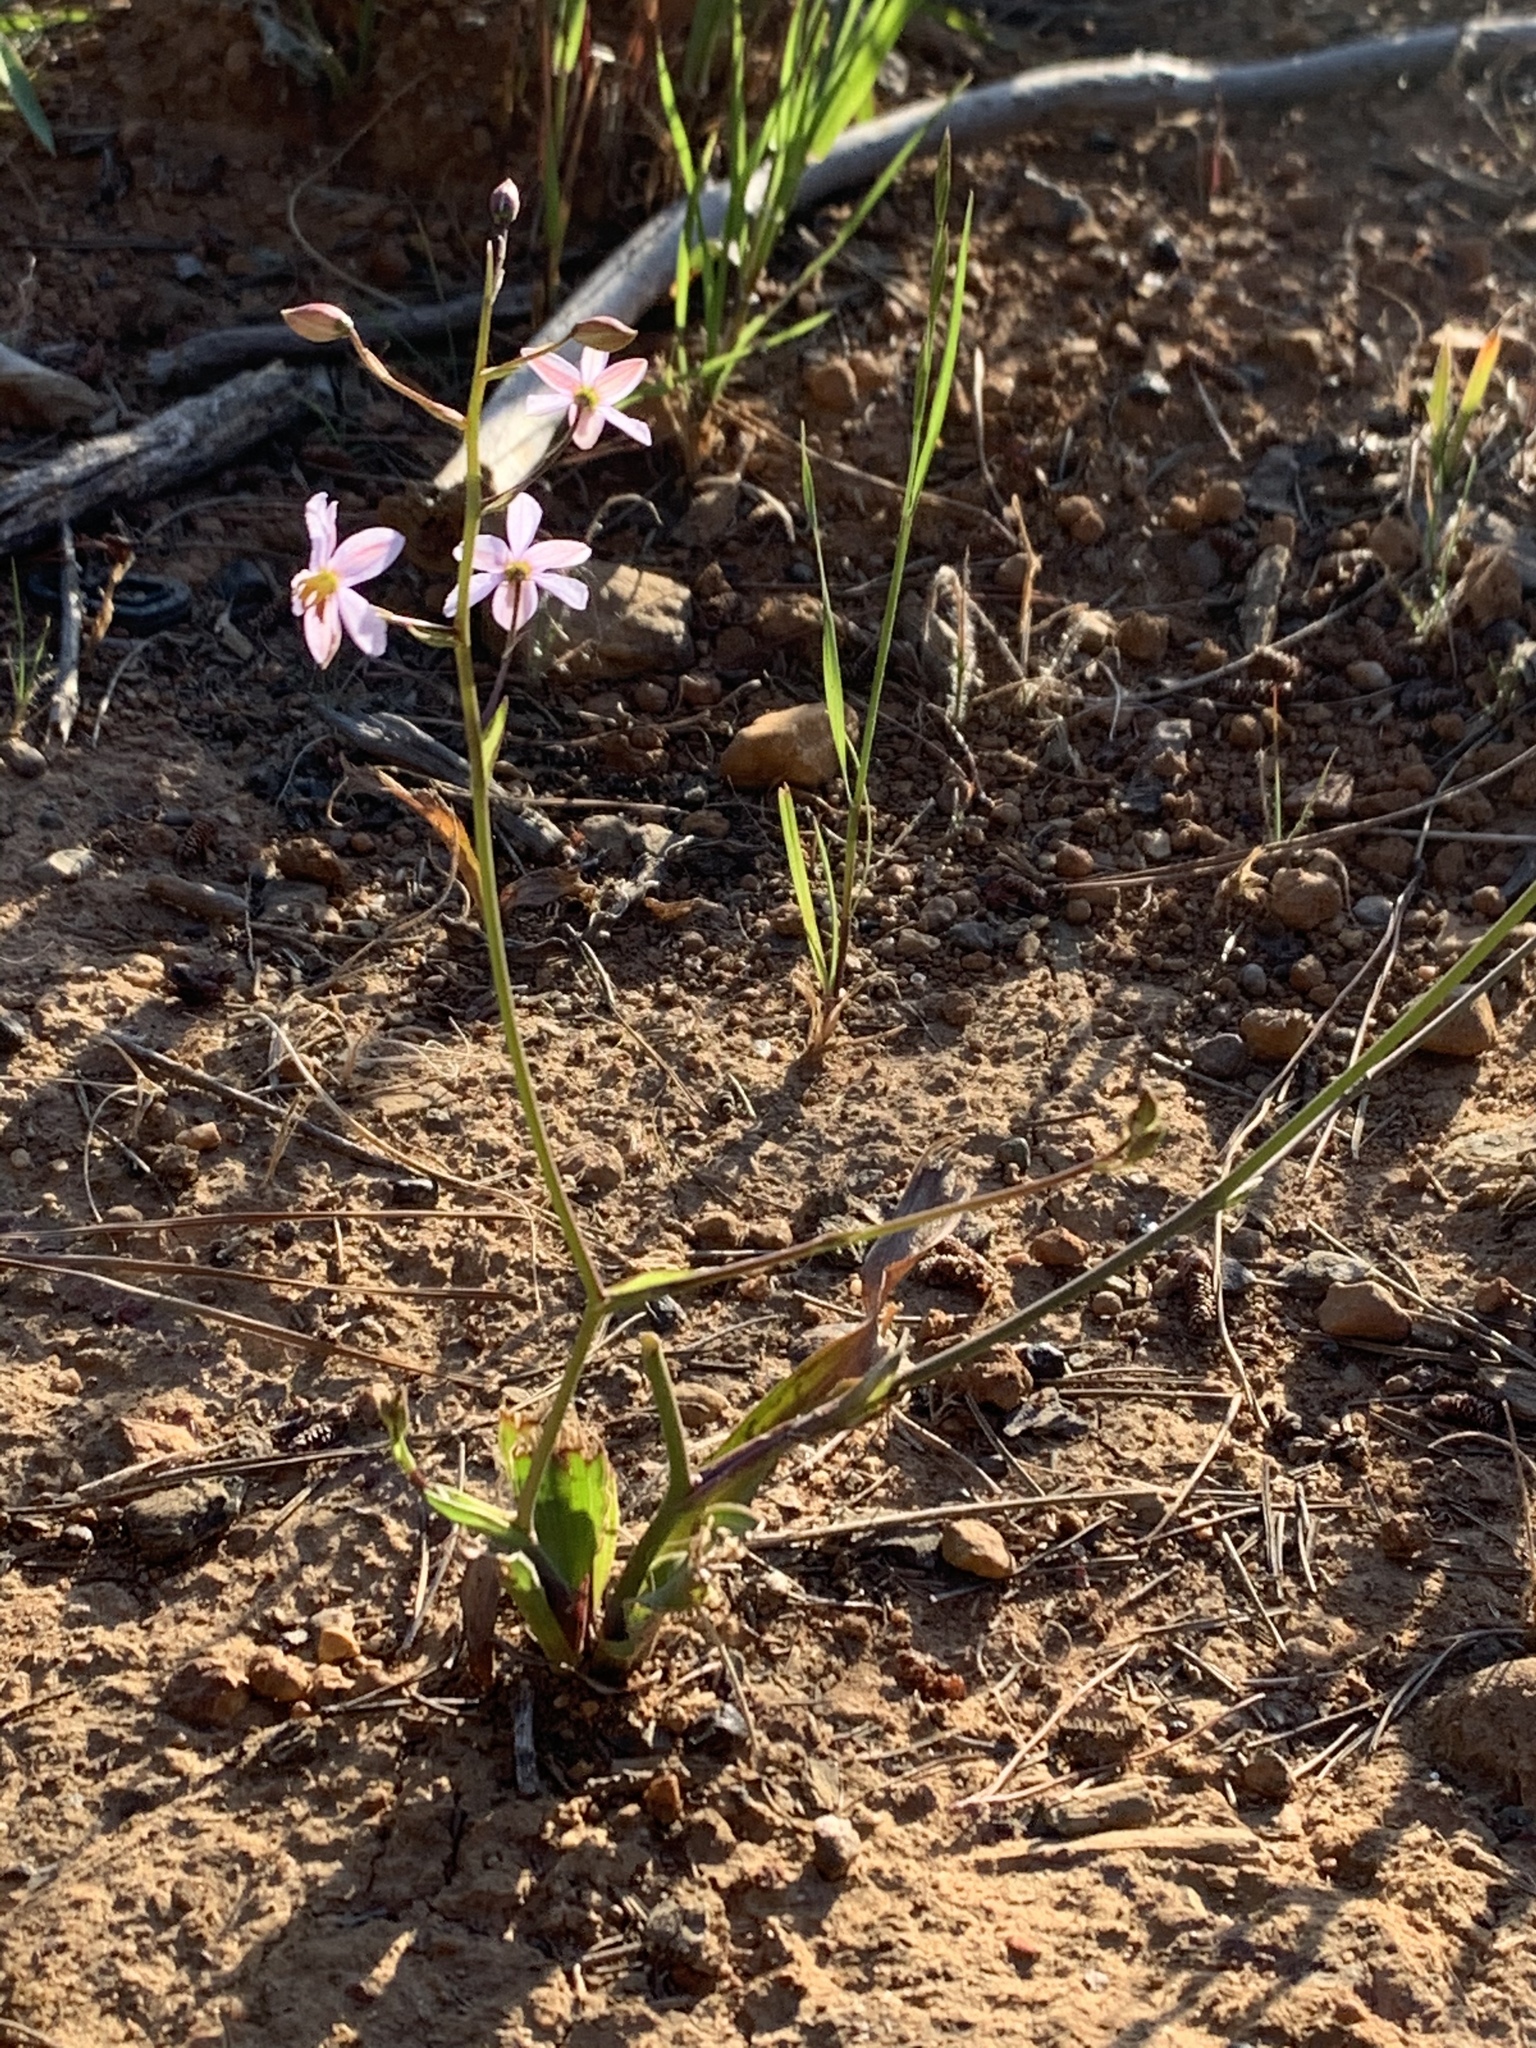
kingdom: Plantae
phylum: Tracheophyta
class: Liliopsida
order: Asparagales
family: Tecophilaeaceae
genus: Cyanella
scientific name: Cyanella hyacinthoides
